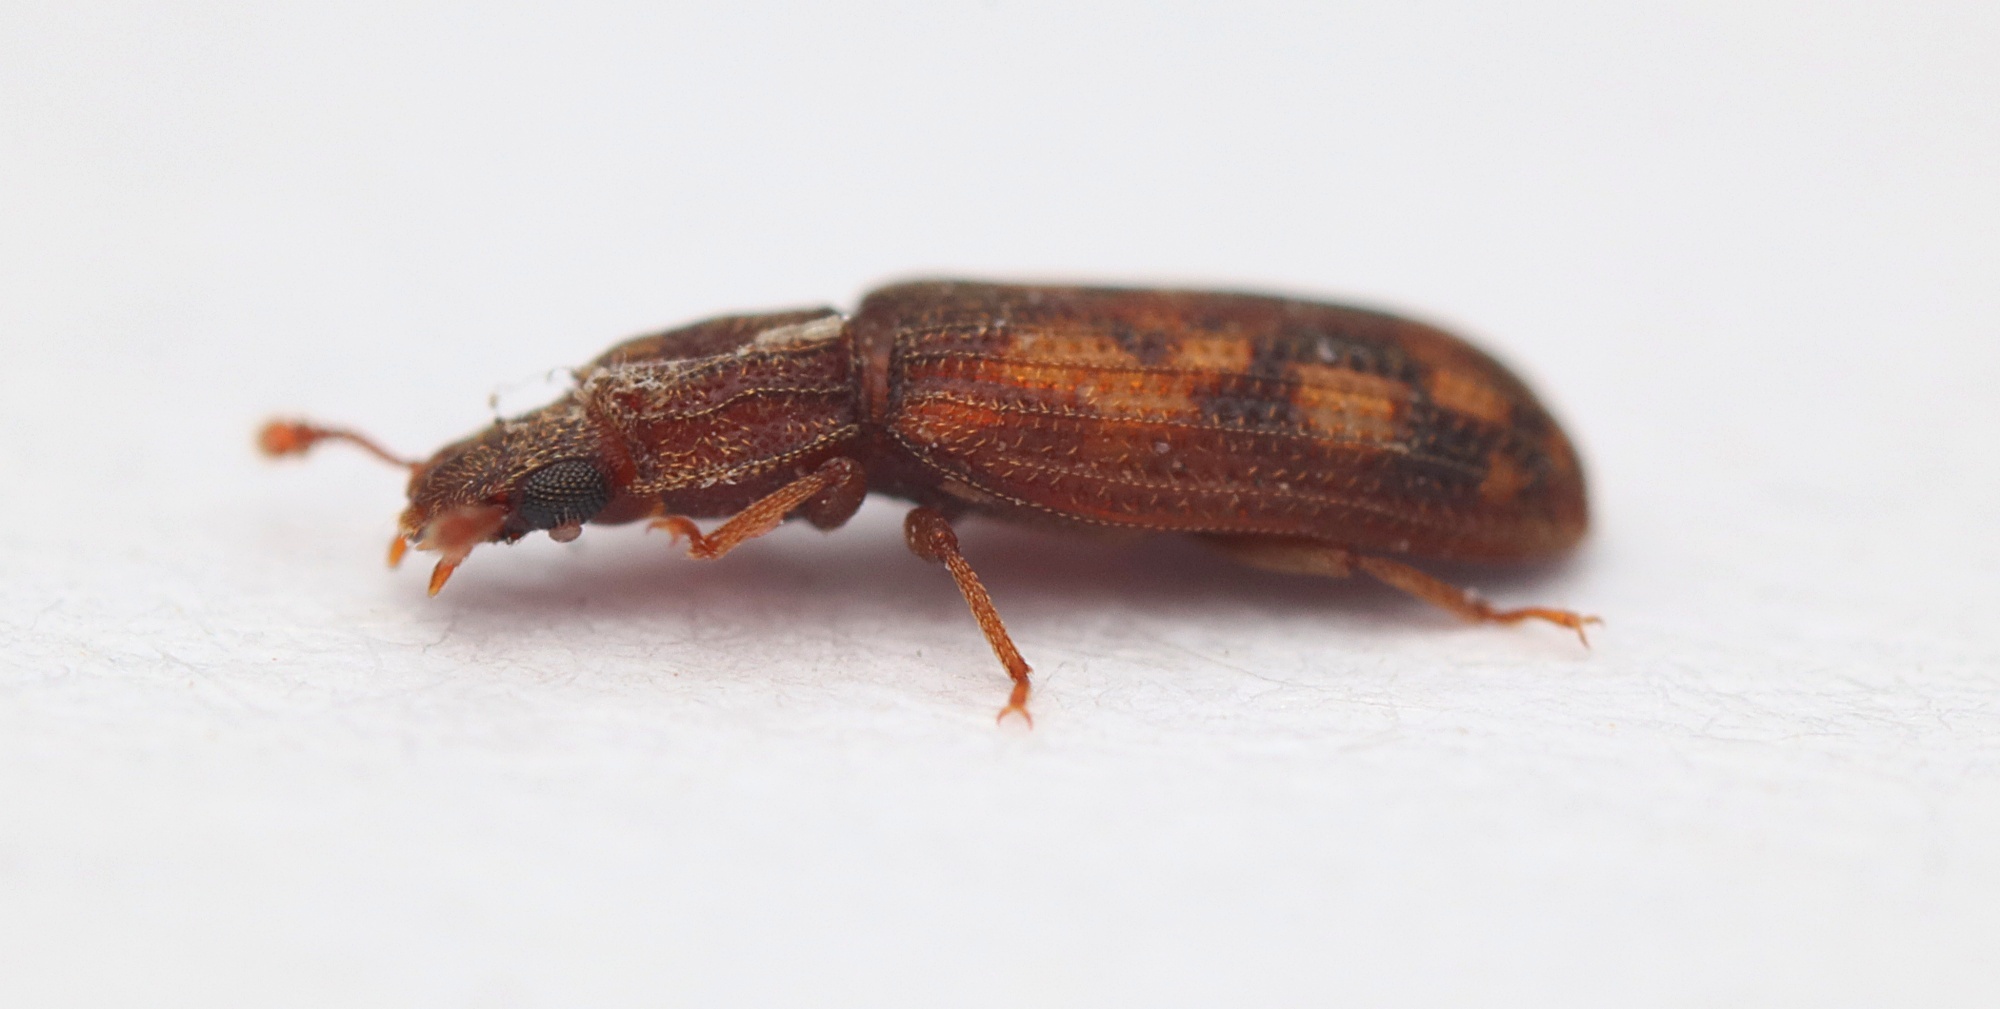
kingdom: Animalia
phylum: Arthropoda
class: Insecta
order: Coleoptera
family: Zopheridae
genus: Bitoma
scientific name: Bitoma insularis
